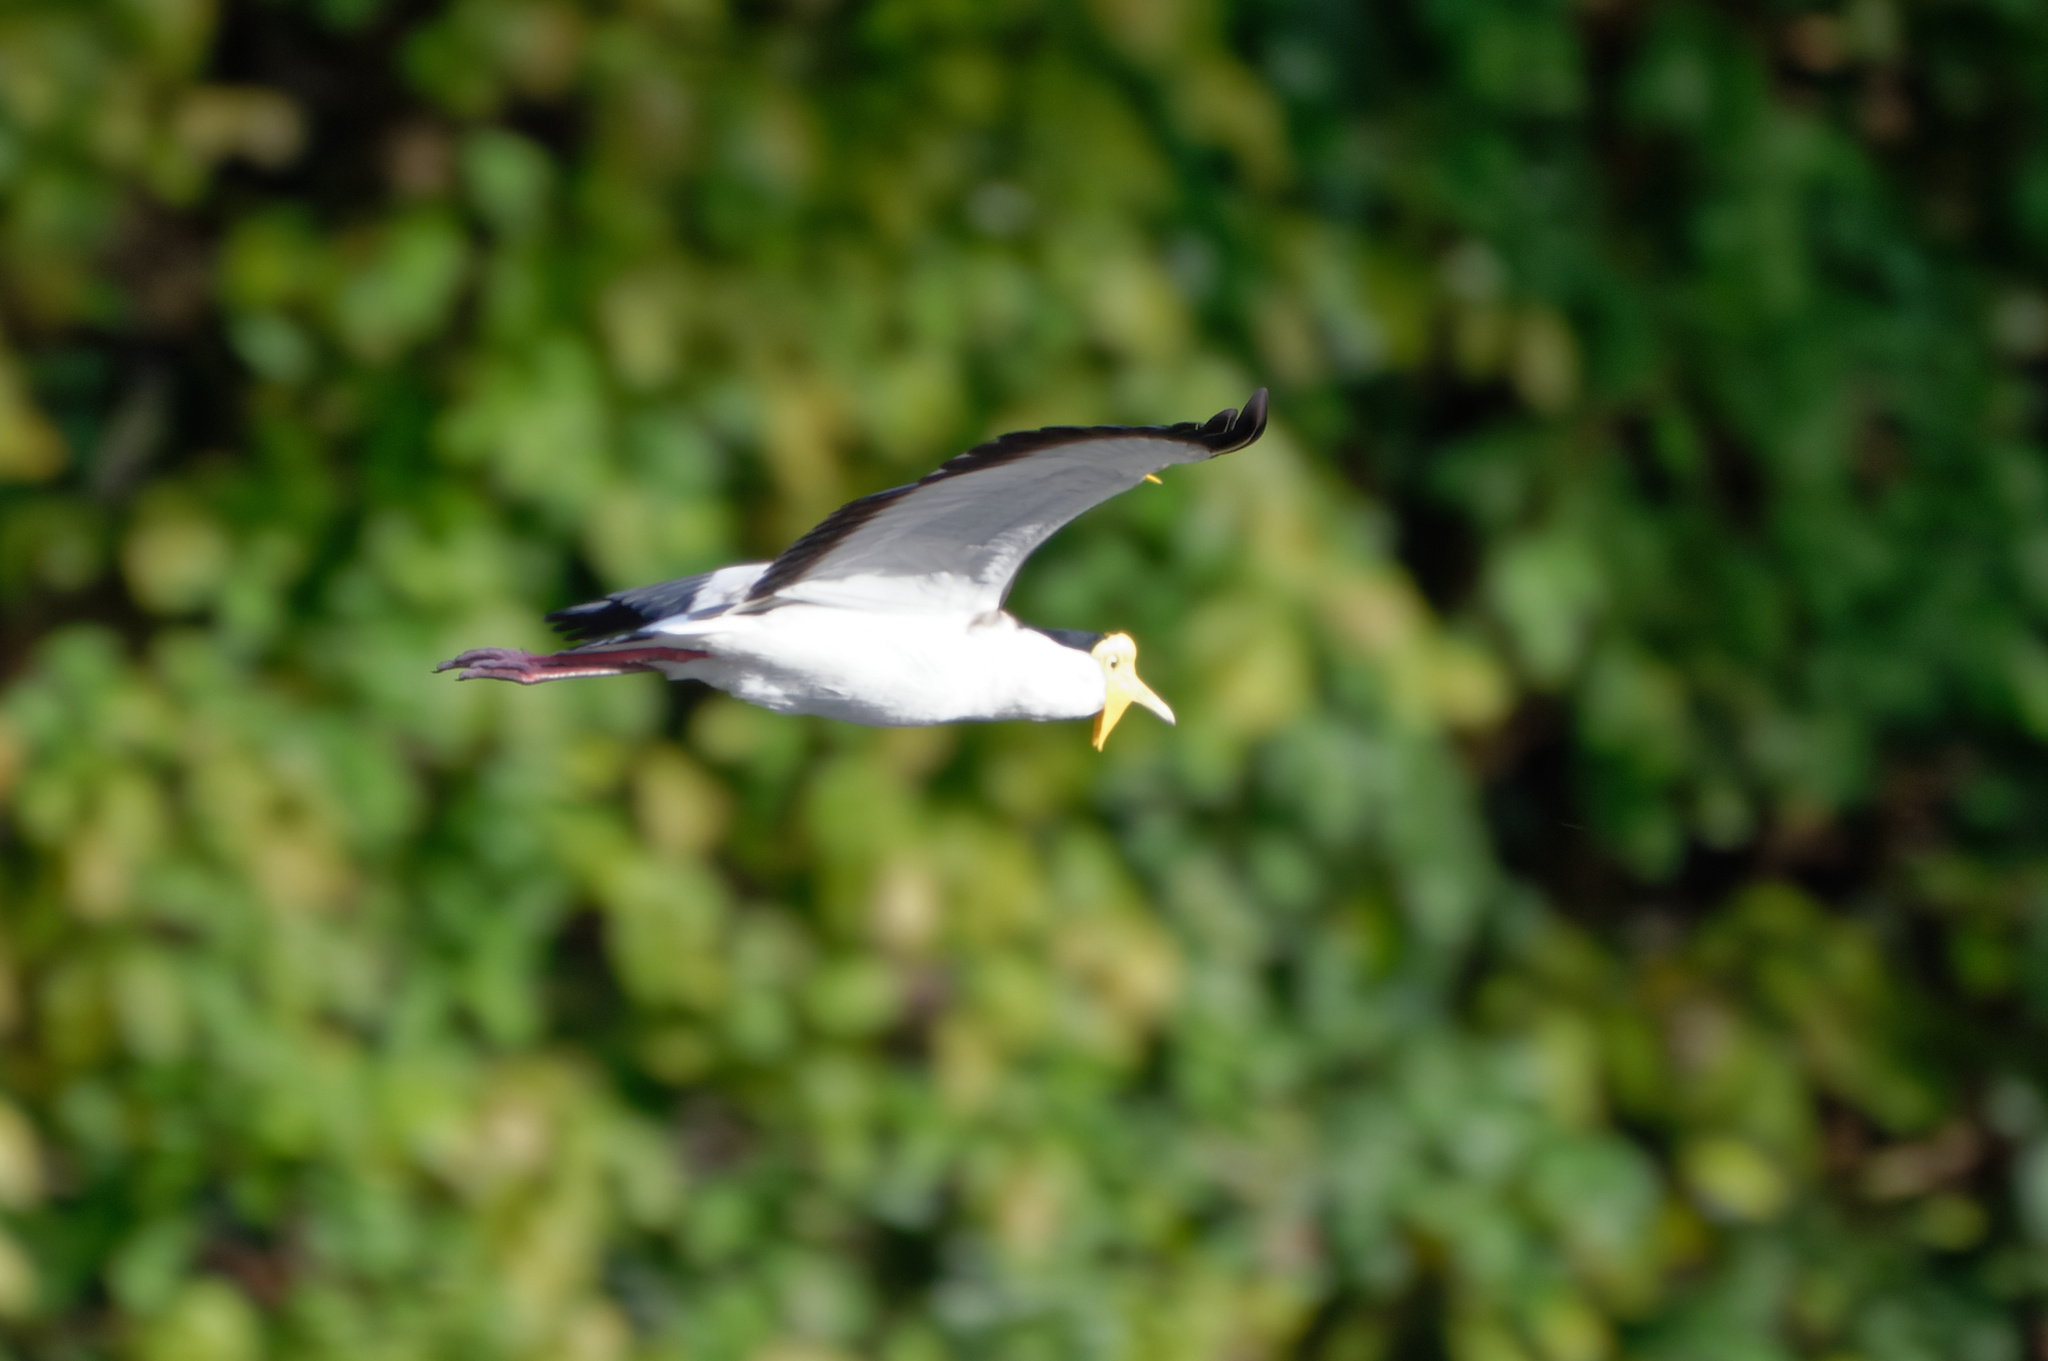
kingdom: Animalia
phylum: Chordata
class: Aves
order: Charadriiformes
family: Charadriidae
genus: Vanellus
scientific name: Vanellus miles
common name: Masked lapwing
